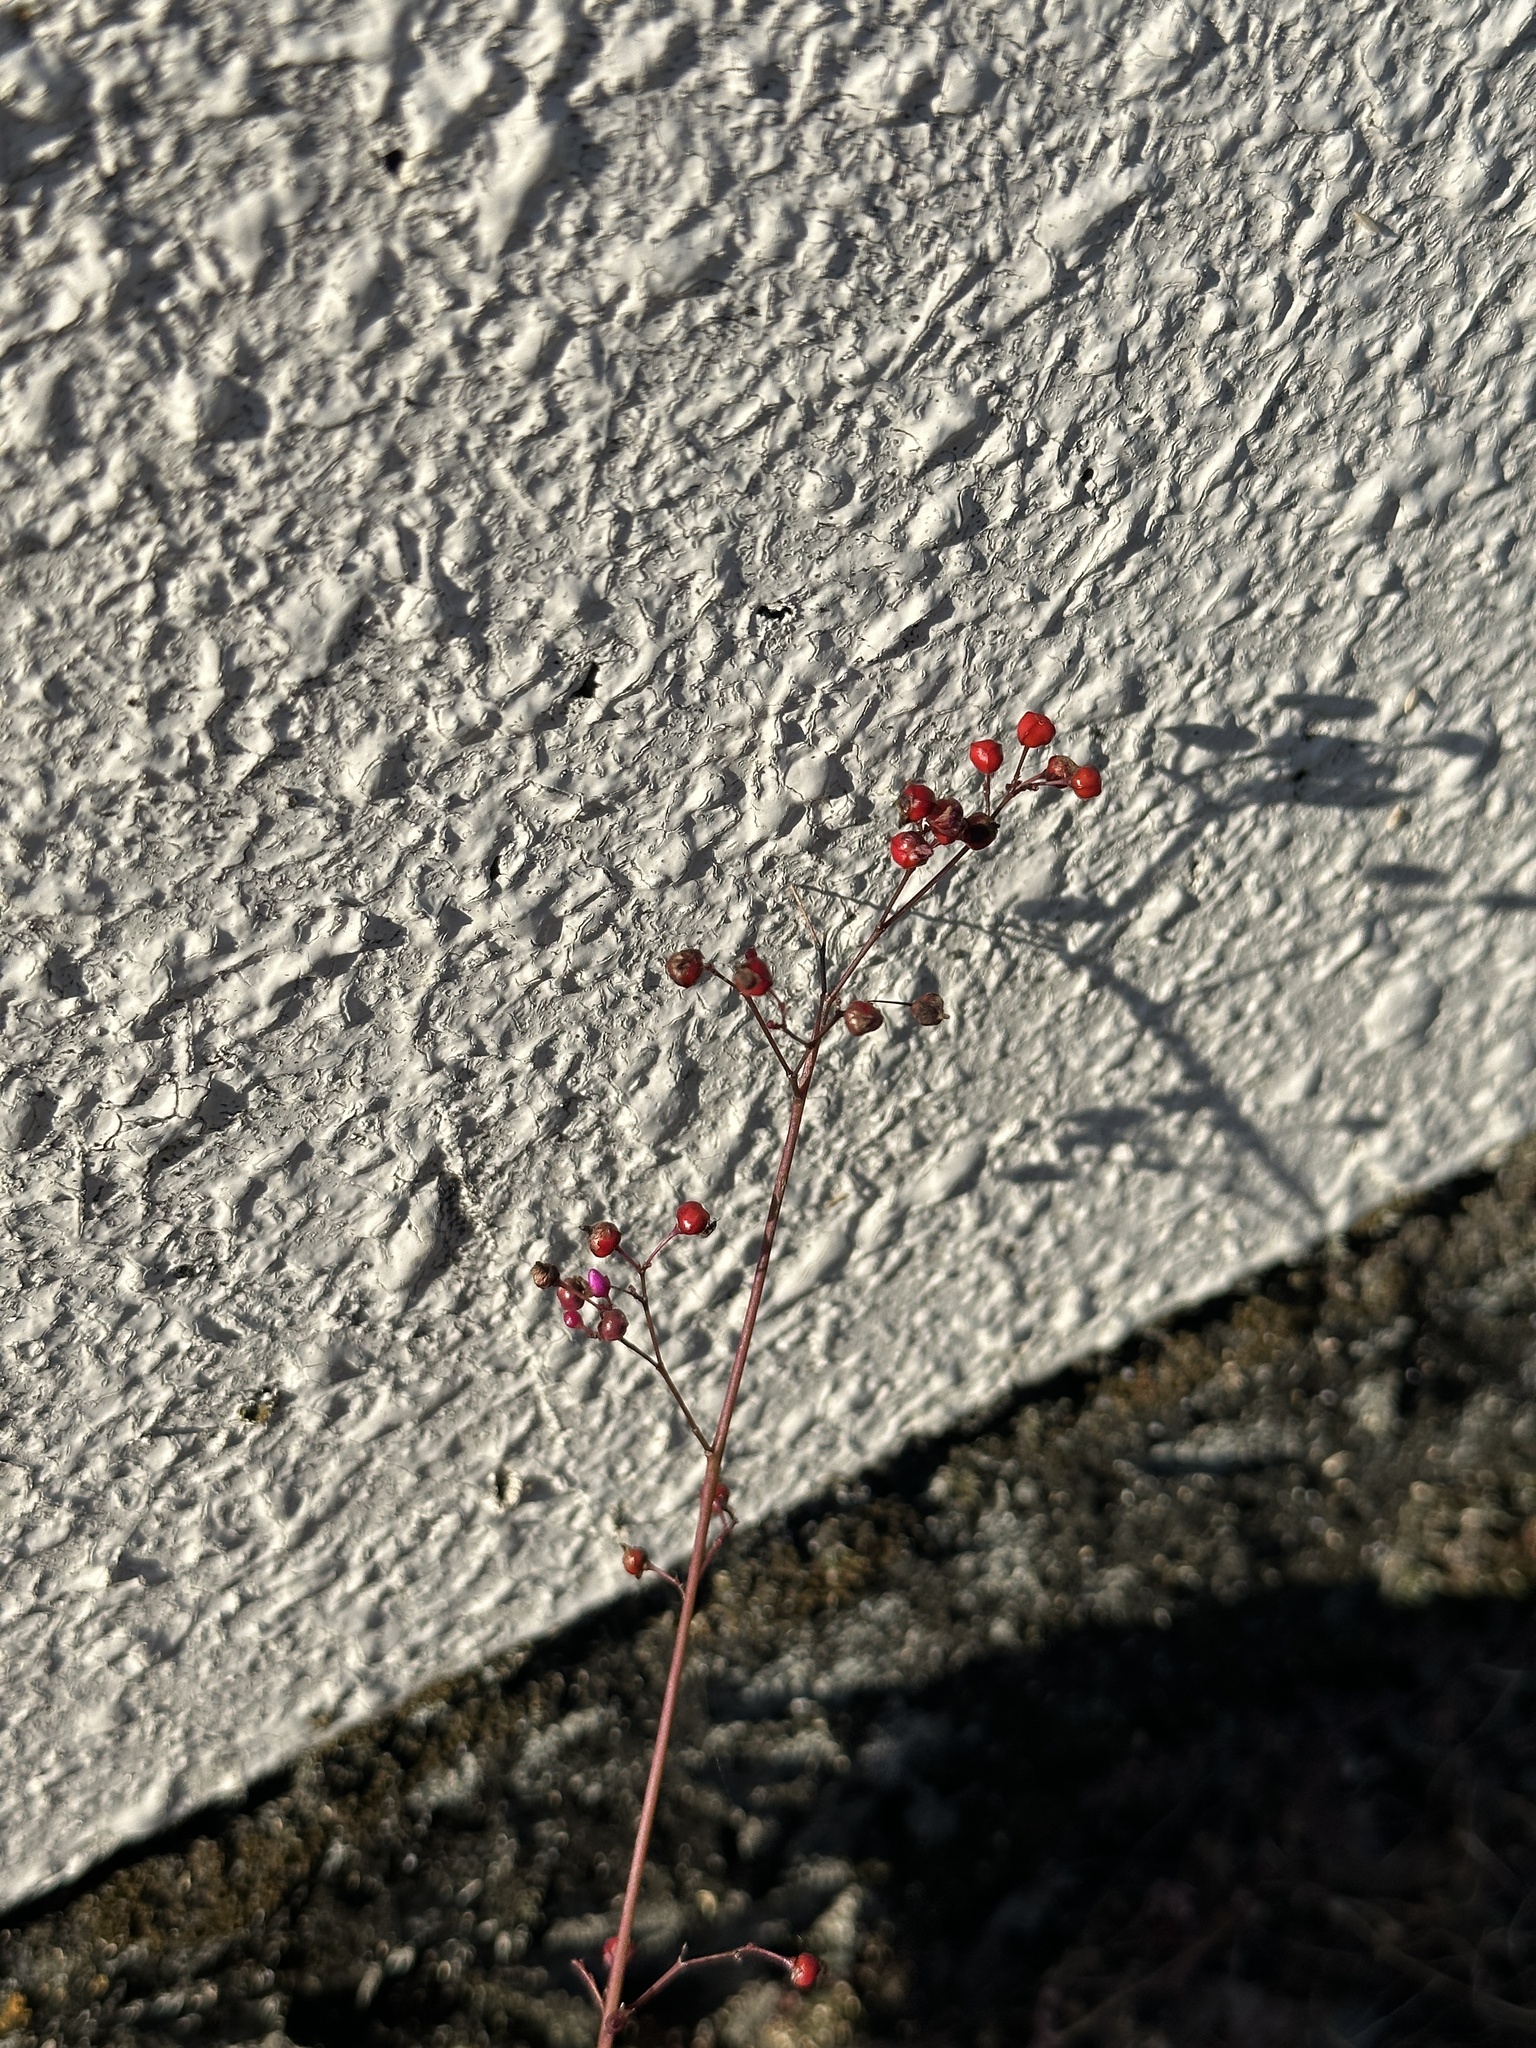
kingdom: Plantae
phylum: Tracheophyta
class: Magnoliopsida
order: Caryophyllales
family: Talinaceae
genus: Talinum
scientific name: Talinum paniculatum
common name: Jewels of opar
